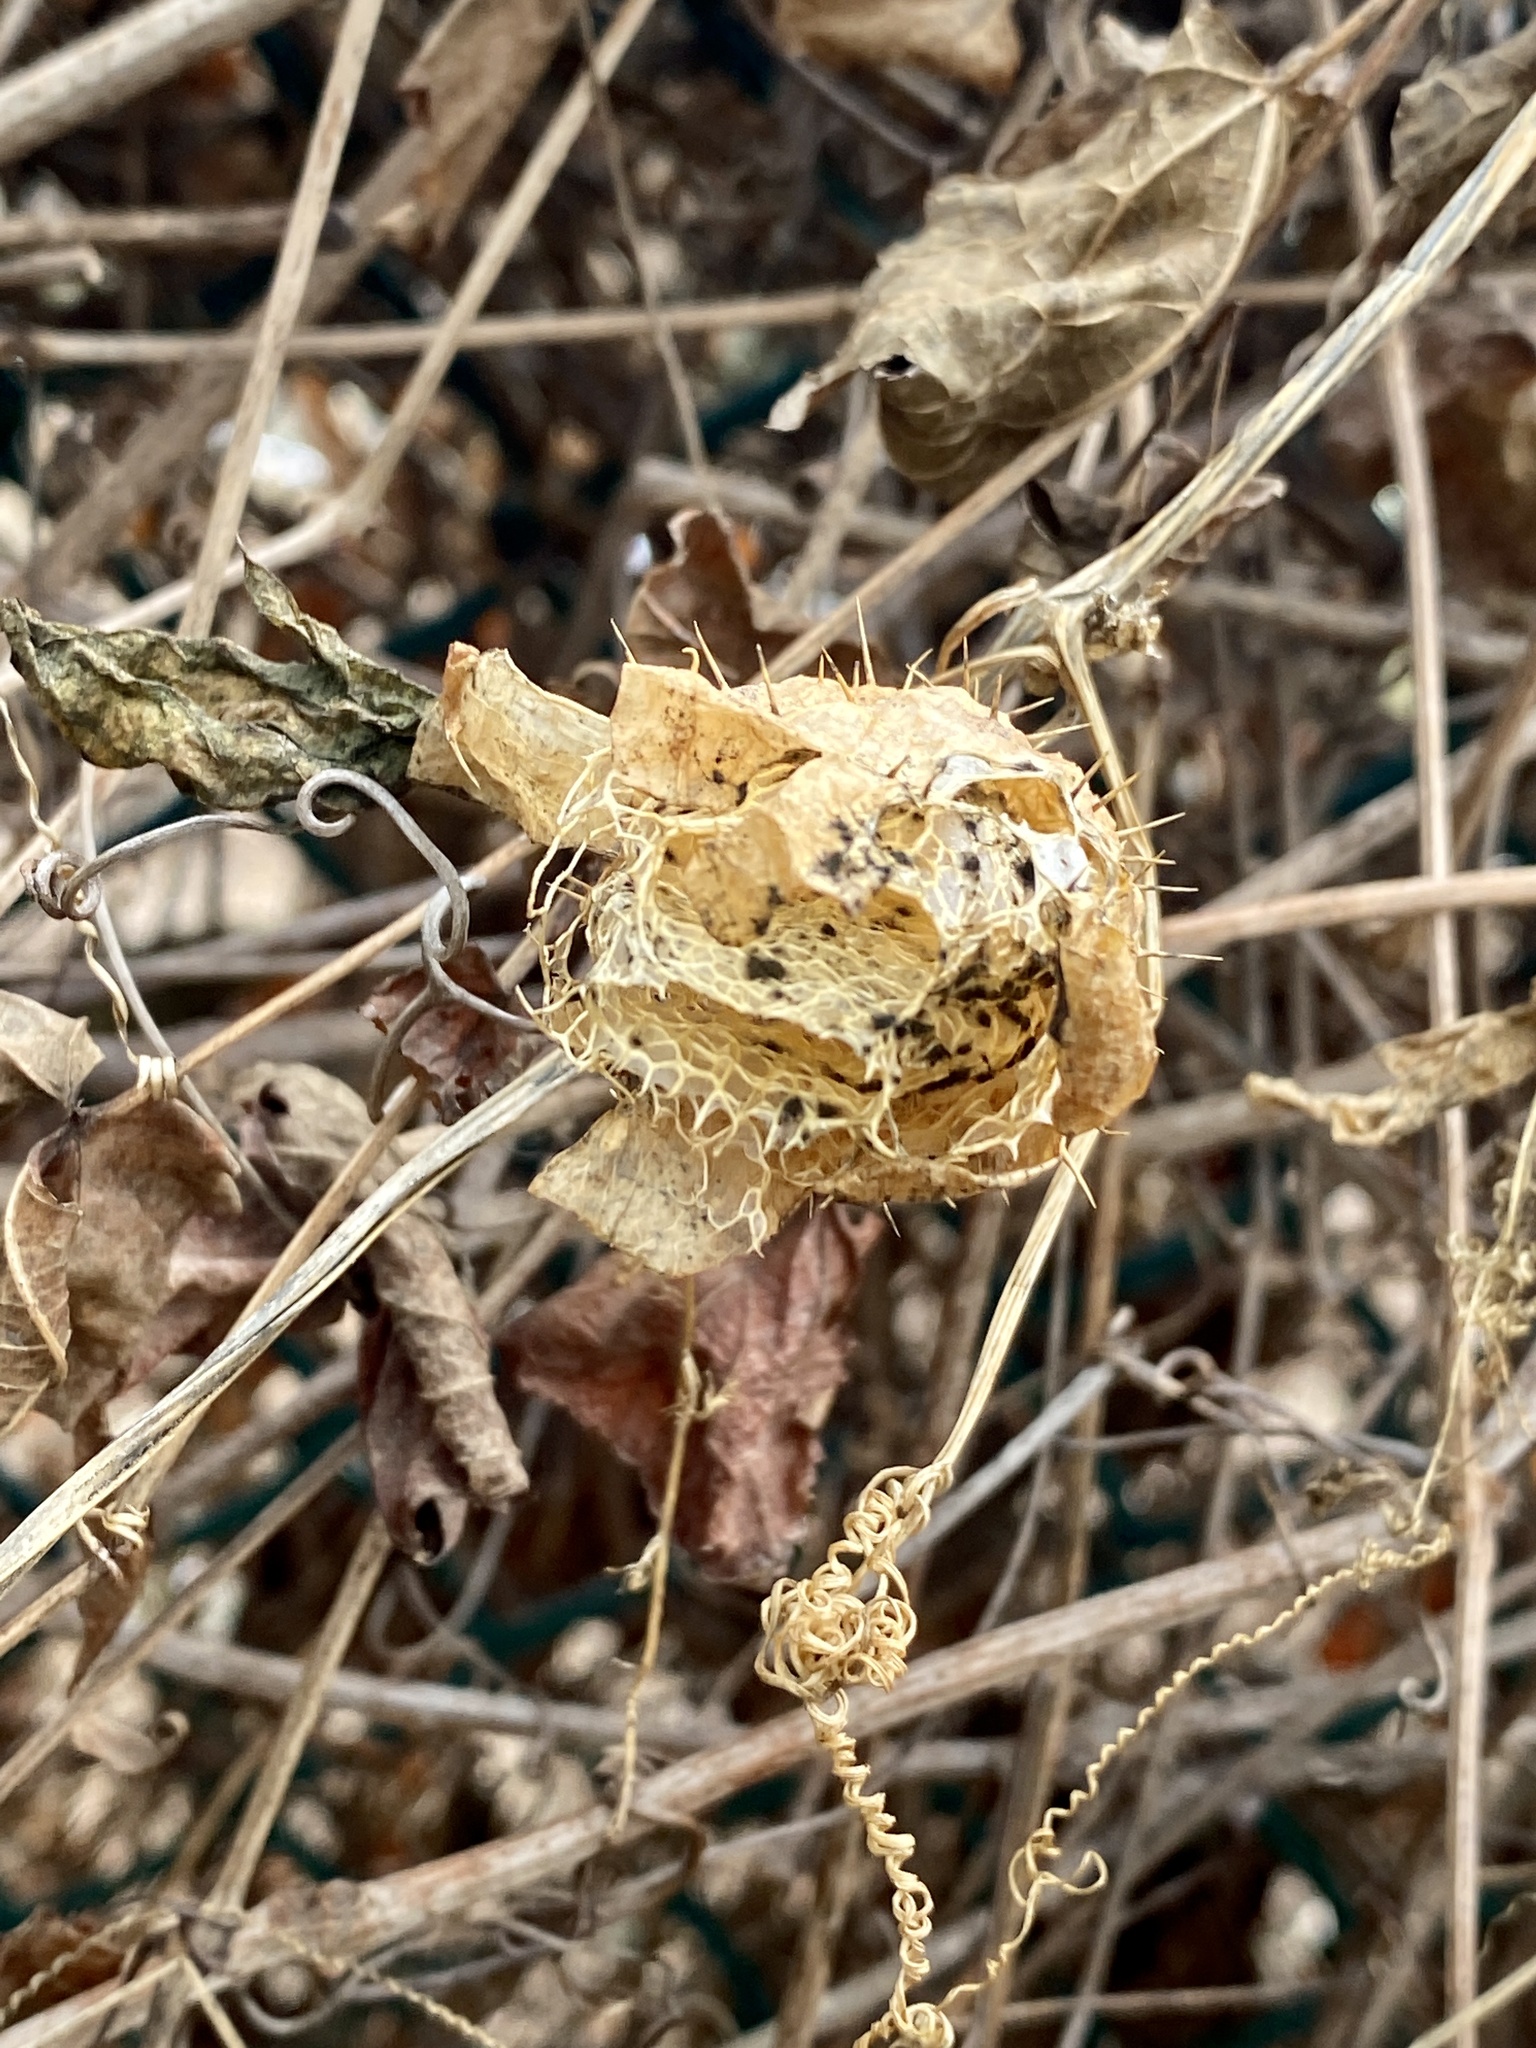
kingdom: Plantae
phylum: Tracheophyta
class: Magnoliopsida
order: Cucurbitales
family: Cucurbitaceae
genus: Echinocystis
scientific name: Echinocystis lobata
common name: Wild cucumber
